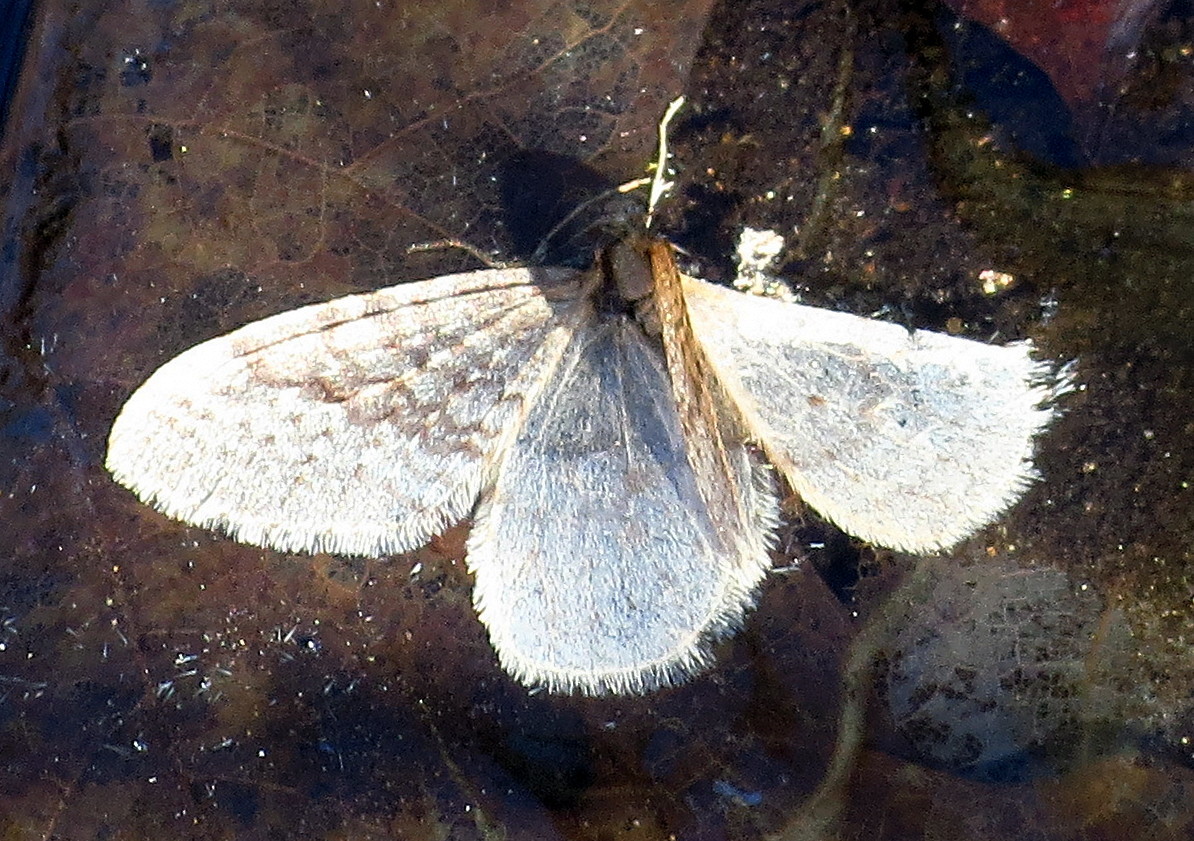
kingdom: Animalia
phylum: Arthropoda
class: Insecta
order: Lepidoptera
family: Geometridae
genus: Operophtera
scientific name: Operophtera bruceata
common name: Bruce spanworm
